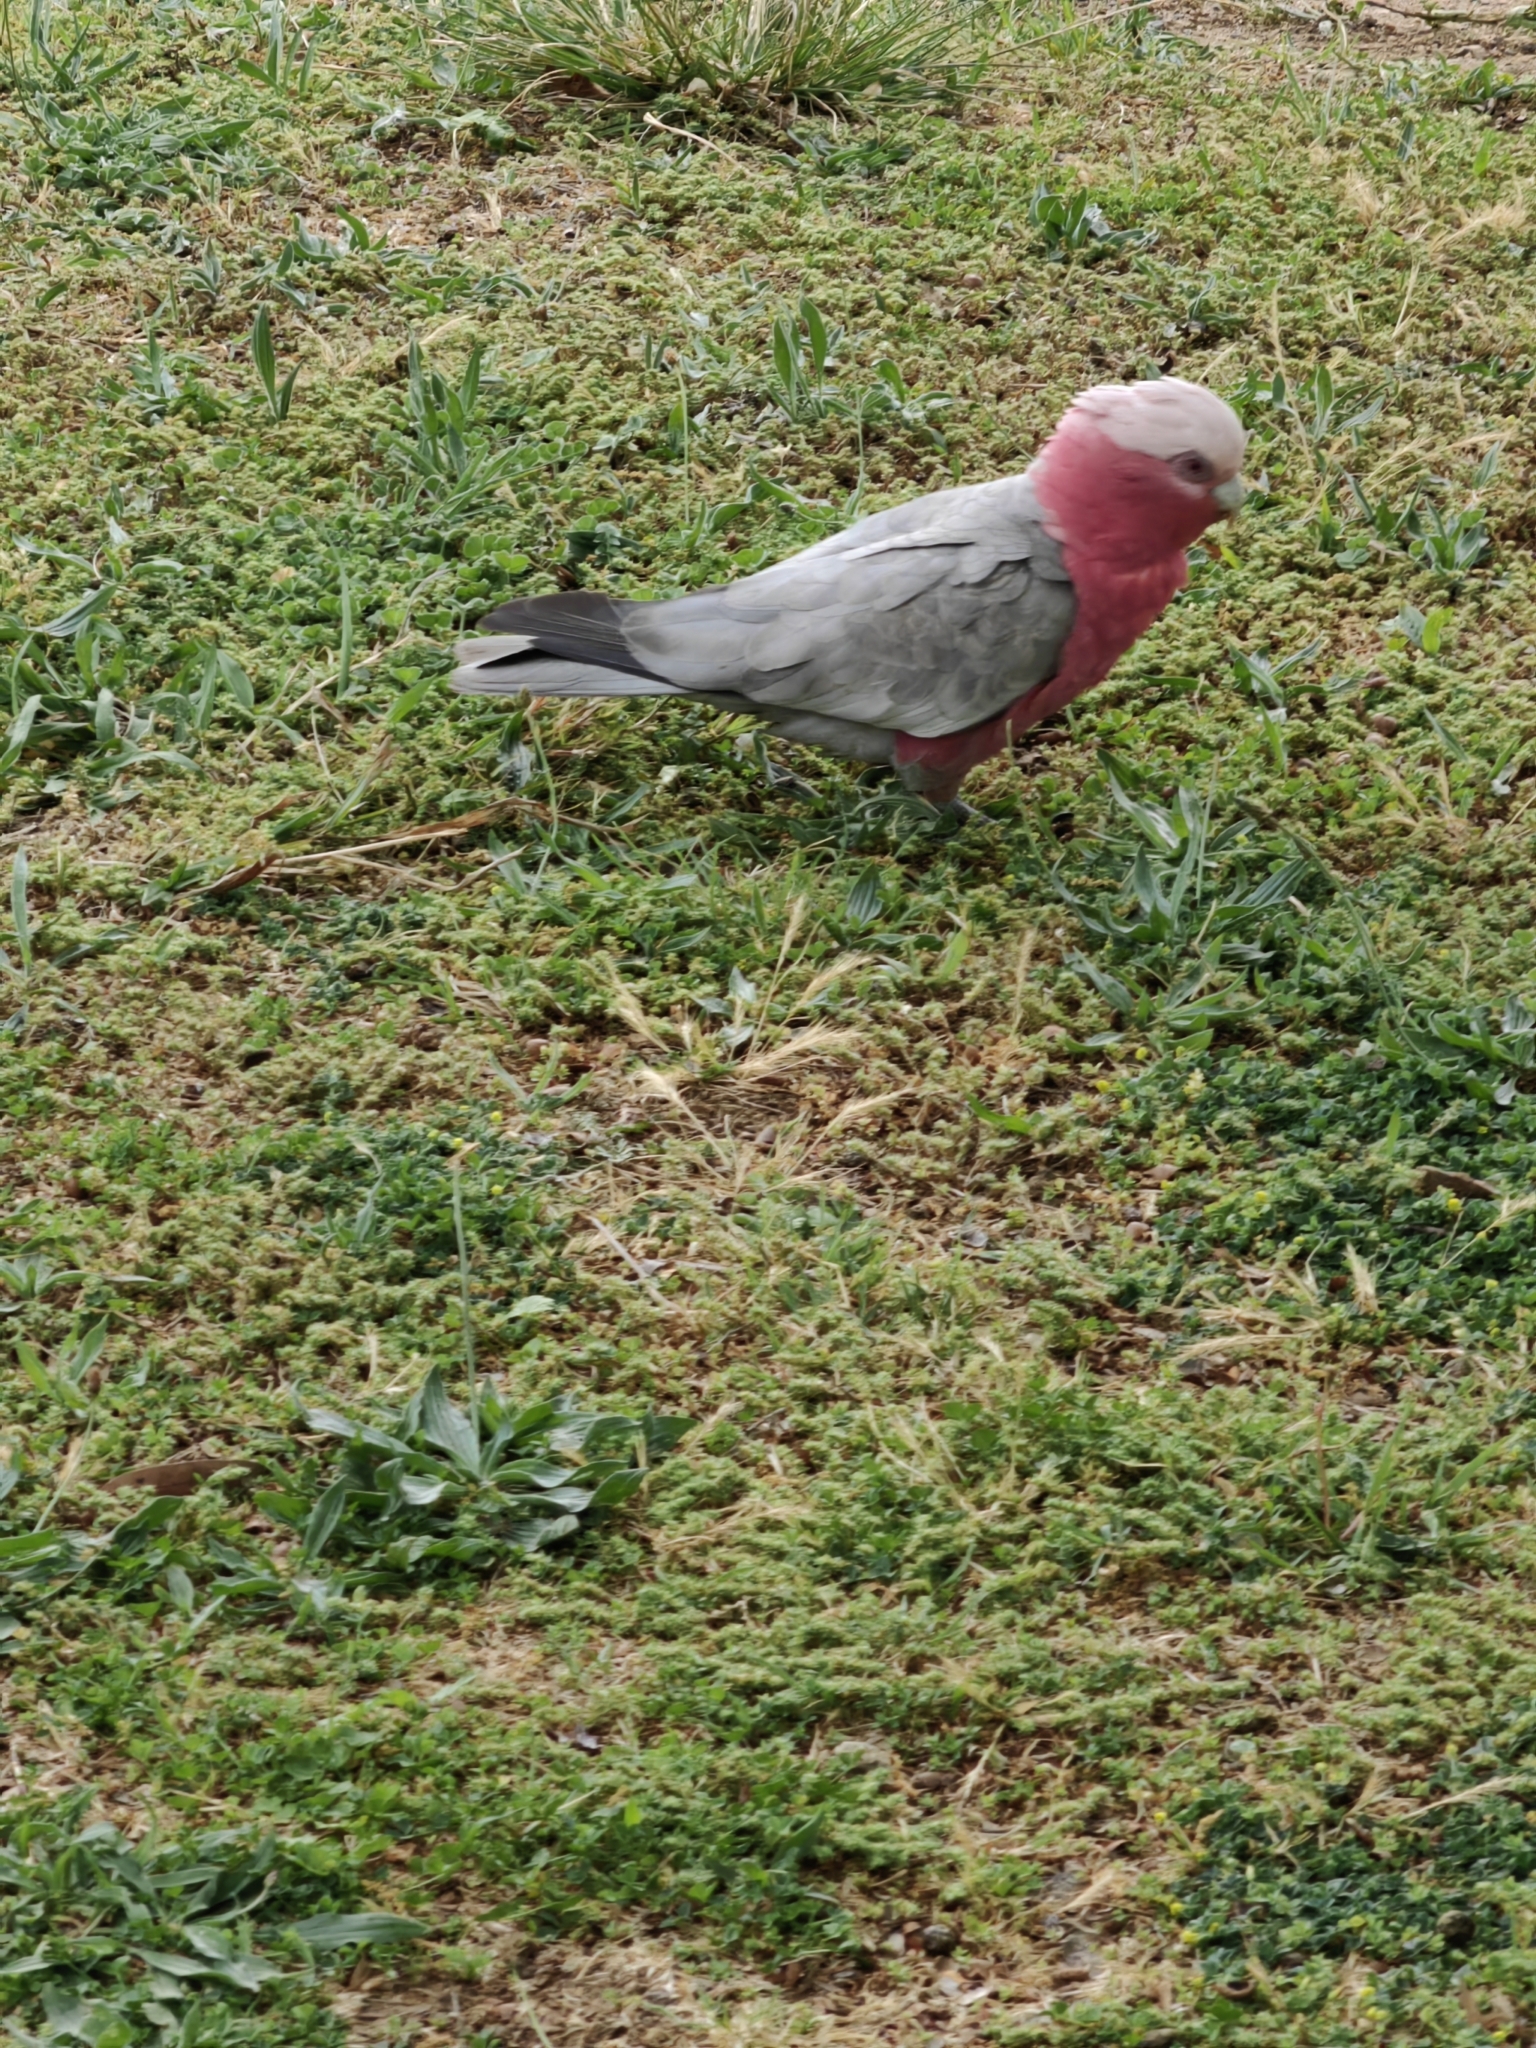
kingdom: Animalia
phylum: Chordata
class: Aves
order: Psittaciformes
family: Psittacidae
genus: Eolophus
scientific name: Eolophus roseicapilla
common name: Galah
